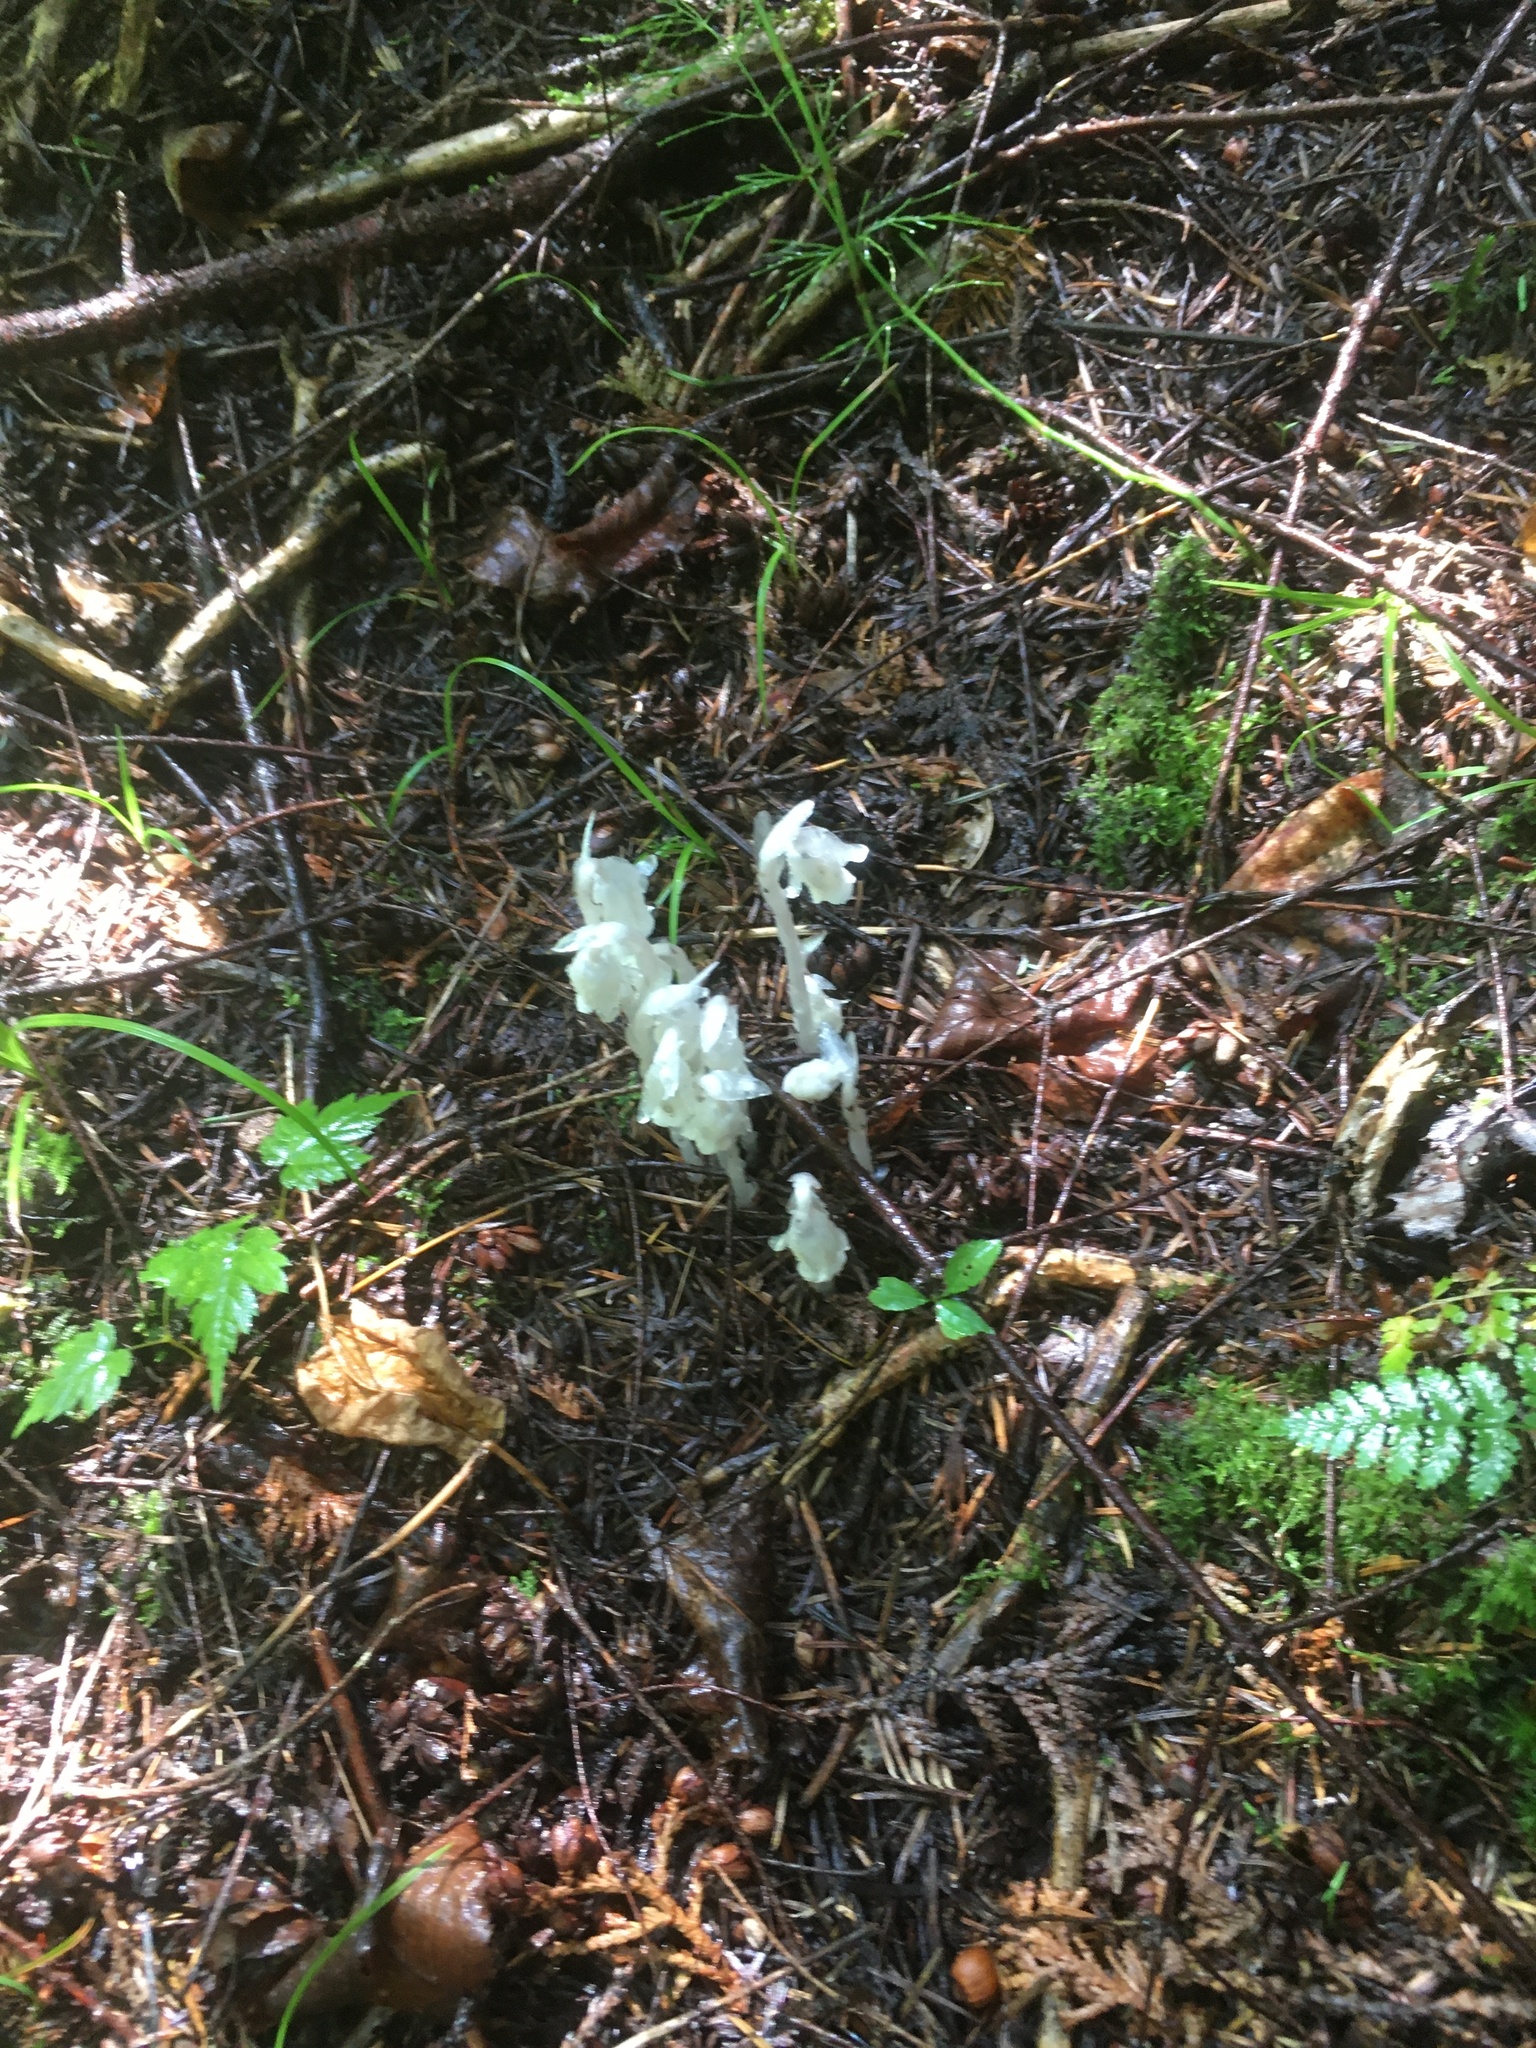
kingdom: Plantae
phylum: Tracheophyta
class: Magnoliopsida
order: Ericales
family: Ericaceae
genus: Monotropa
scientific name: Monotropa uniflora
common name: Convulsion root
